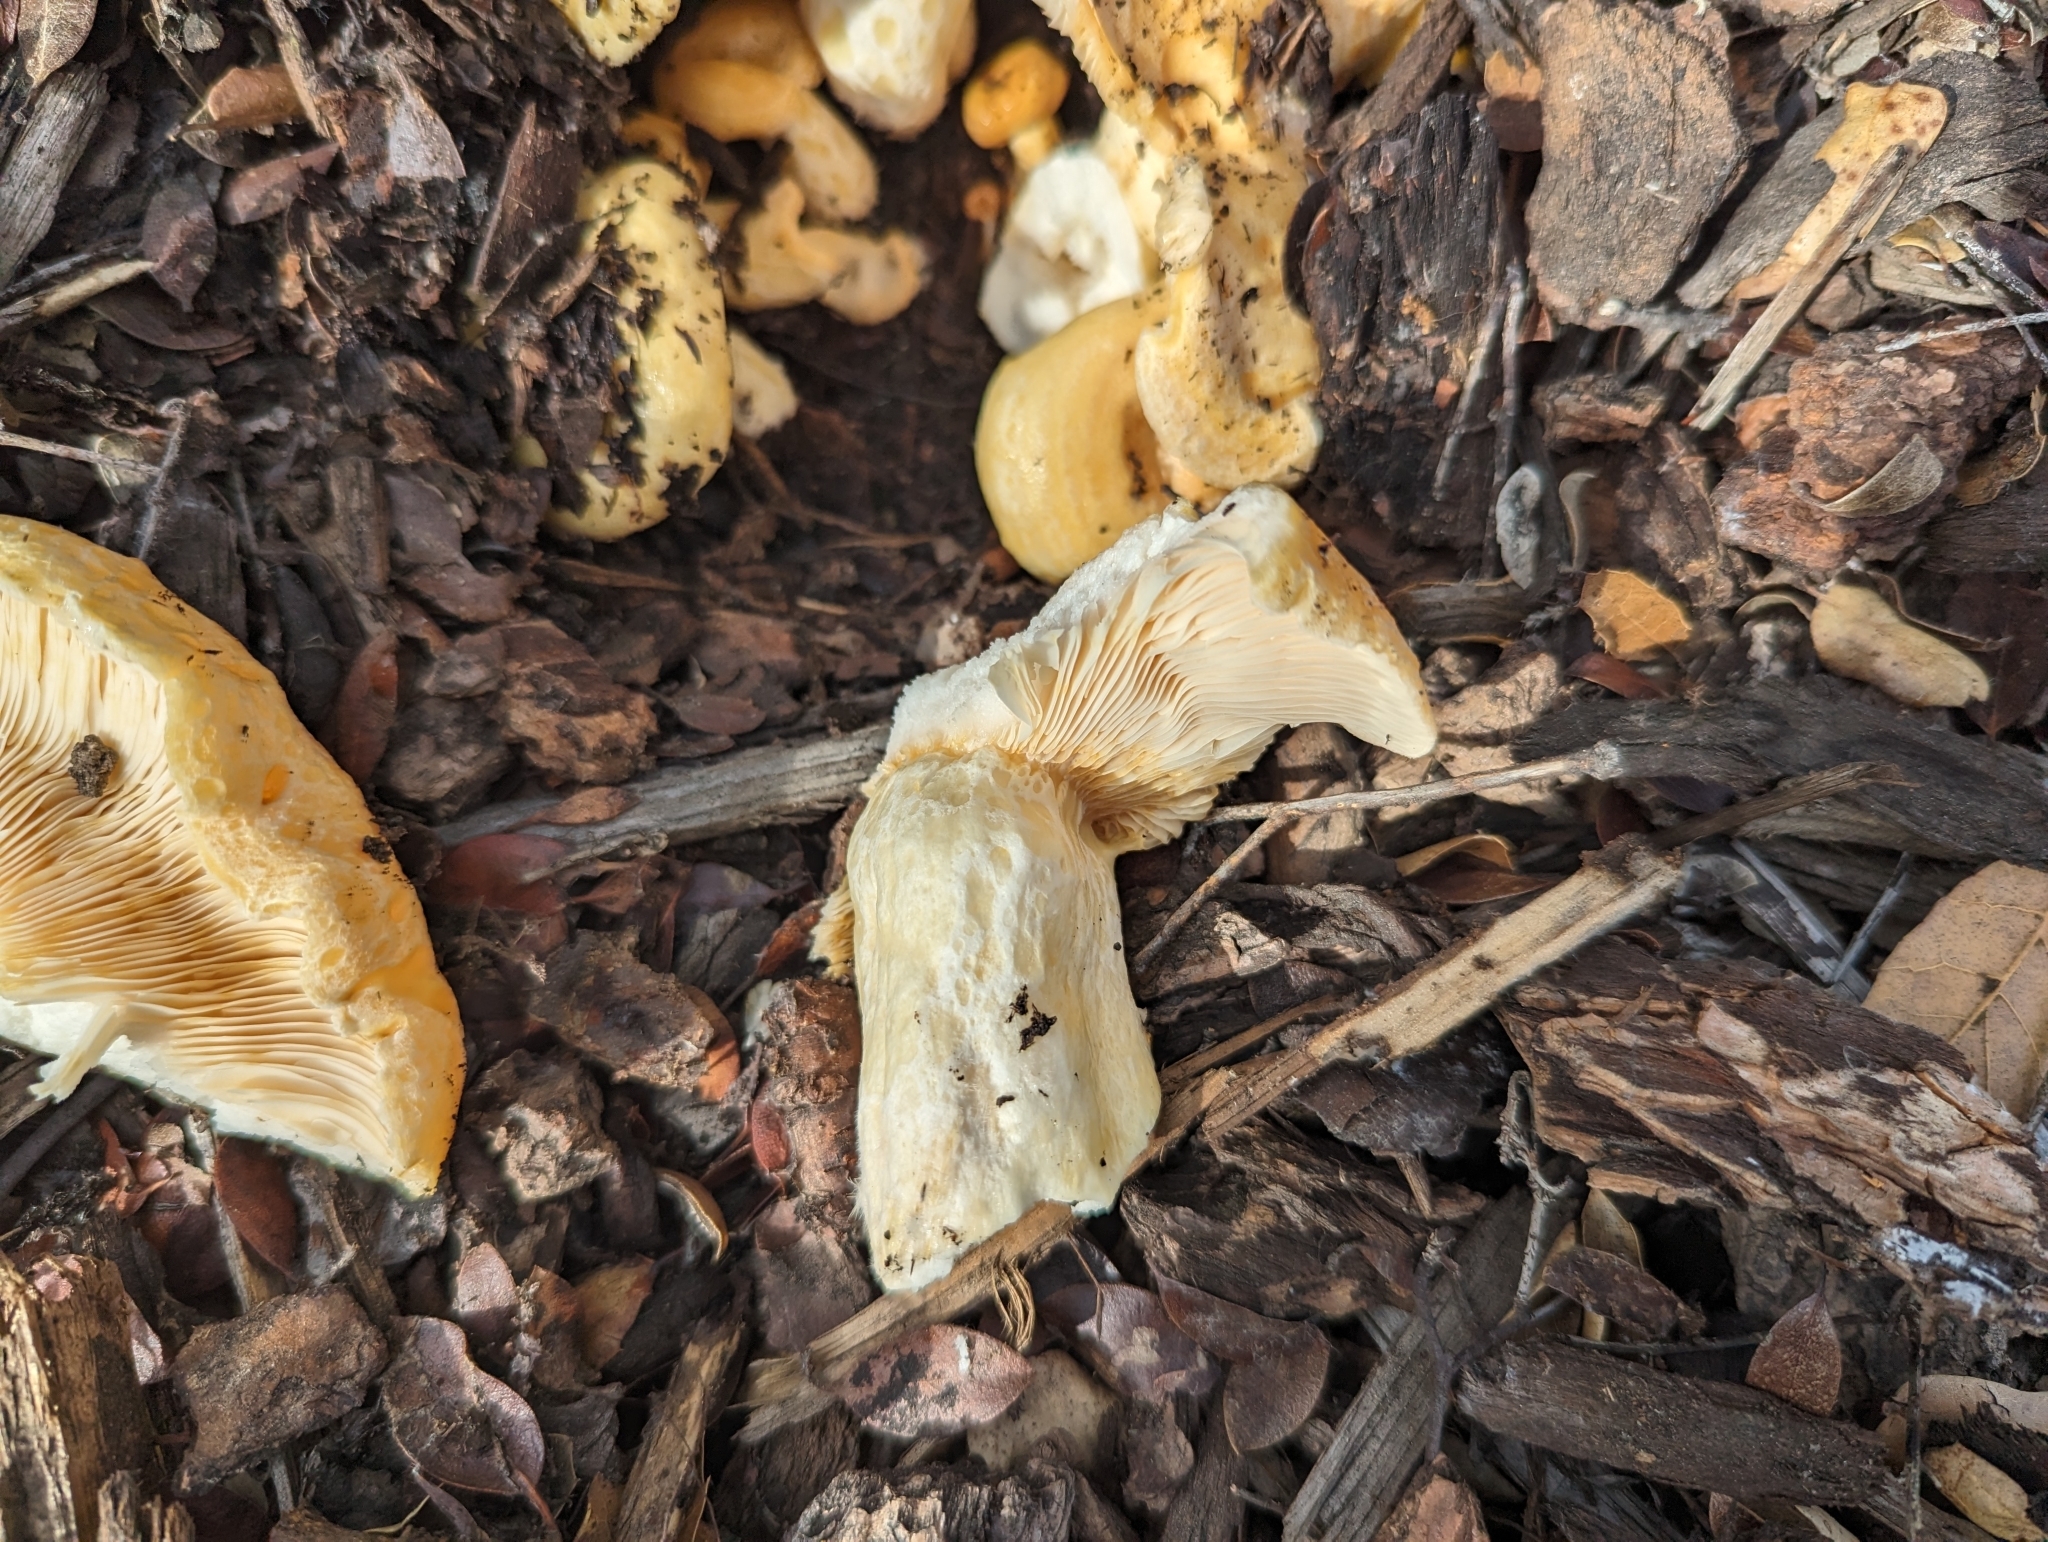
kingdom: Fungi
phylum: Basidiomycota
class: Agaricomycetes
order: Russulales
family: Russulaceae
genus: Lactarius
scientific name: Lactarius alnicola
